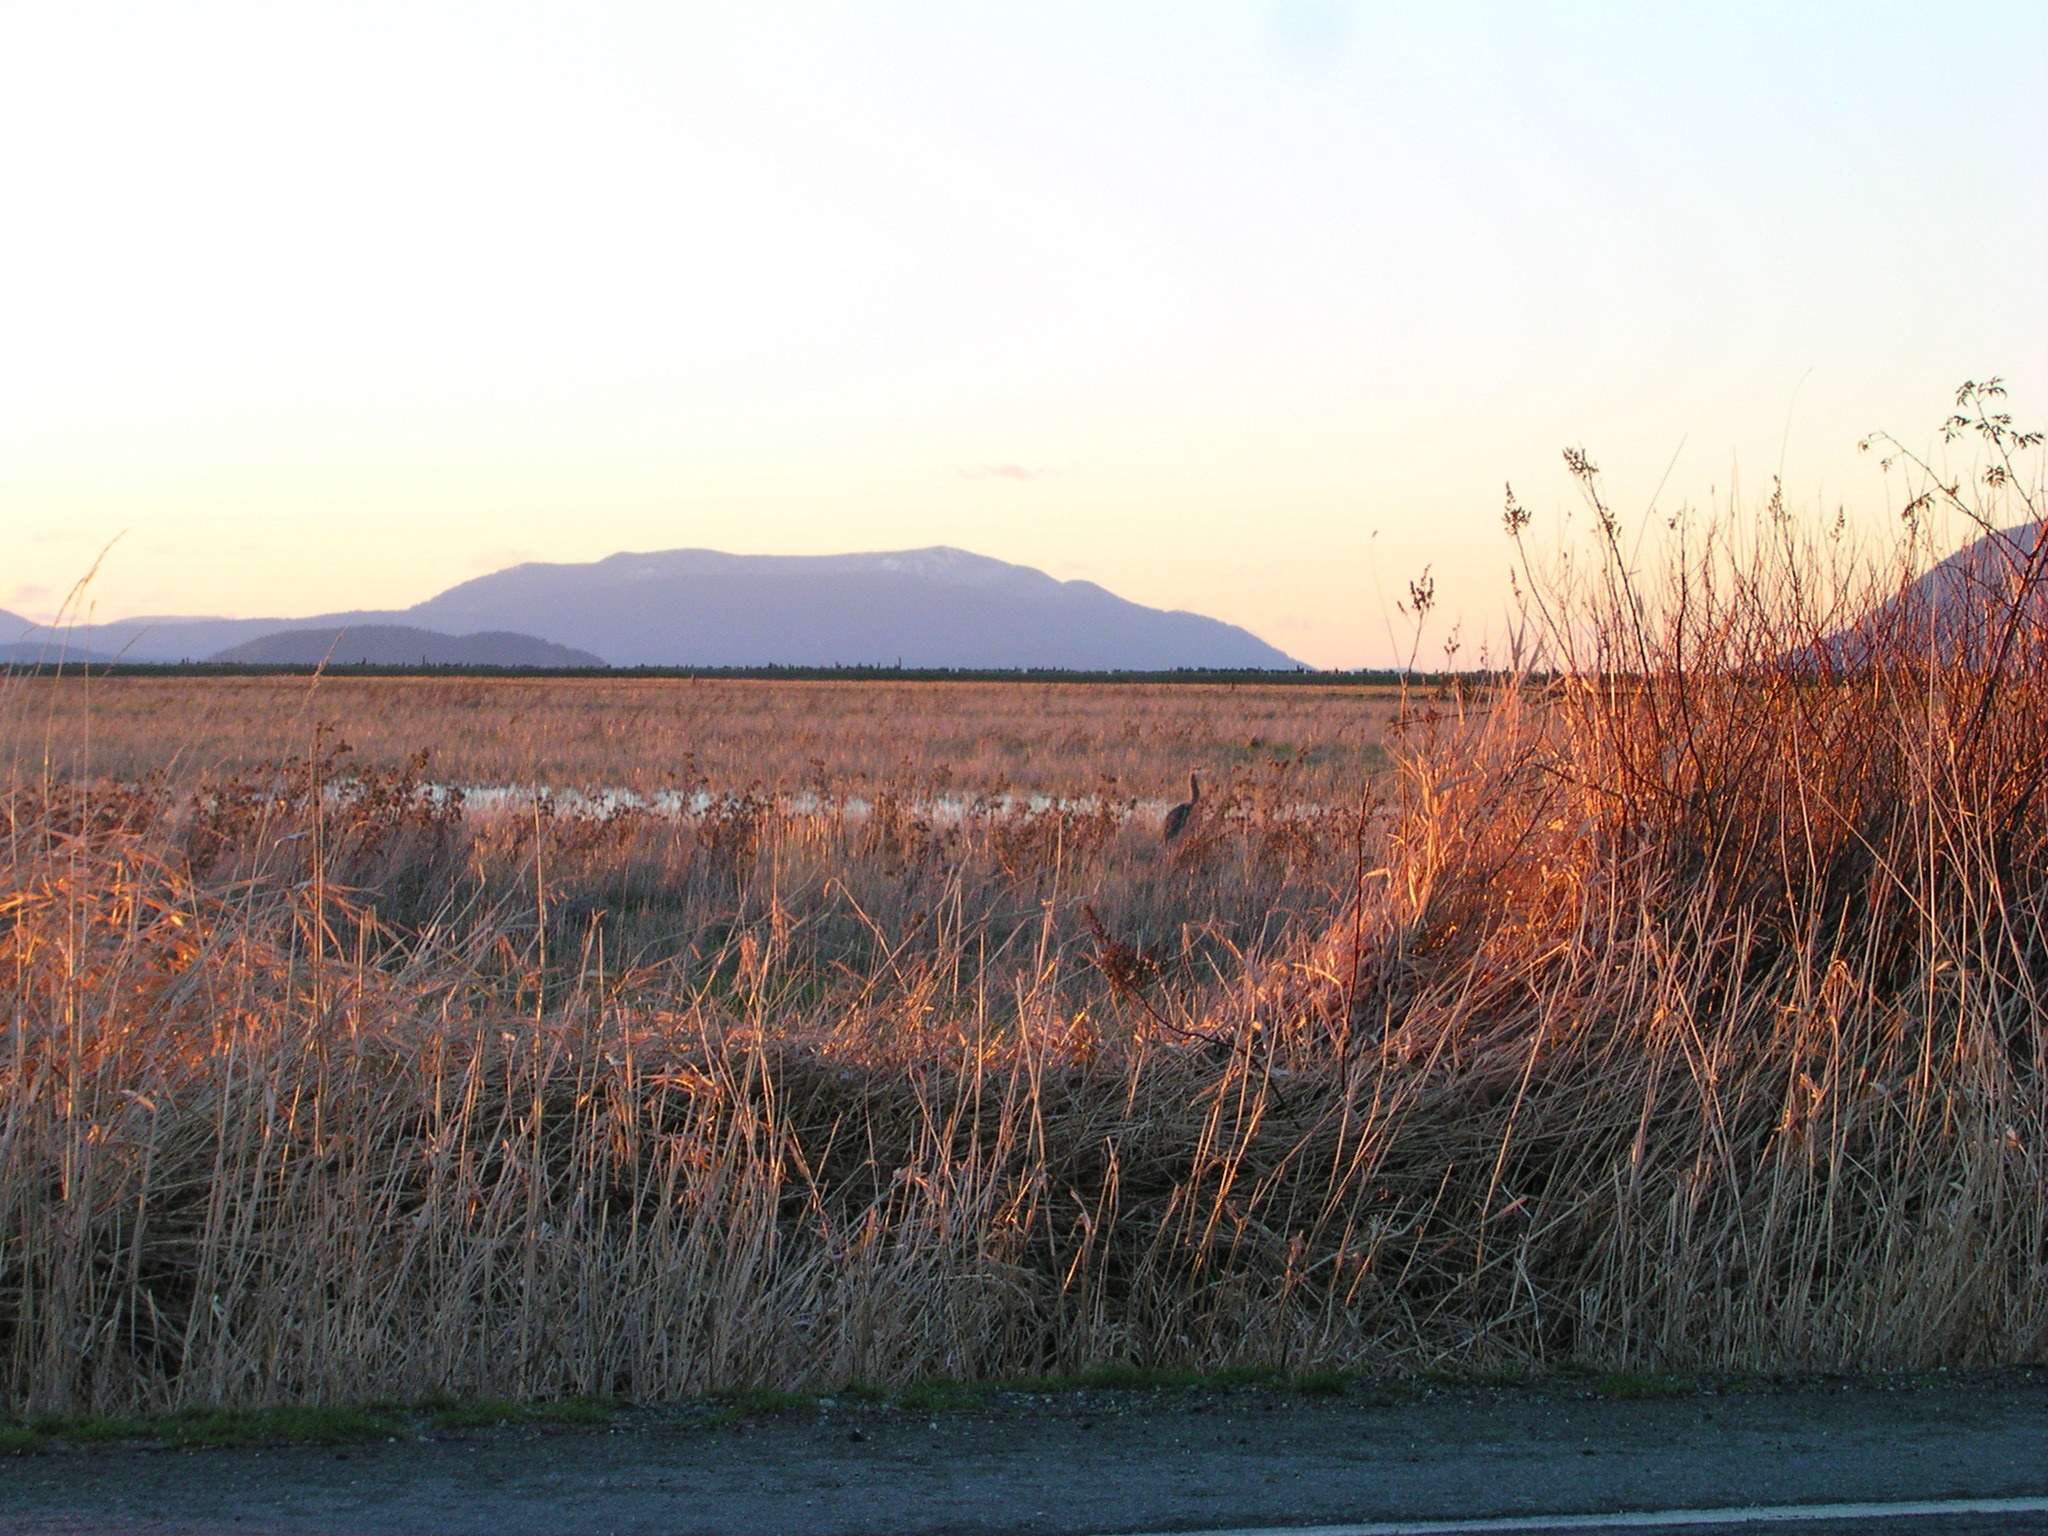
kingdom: Animalia
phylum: Chordata
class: Aves
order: Pelecaniformes
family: Ardeidae
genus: Ardea
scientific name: Ardea herodias
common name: Great blue heron
